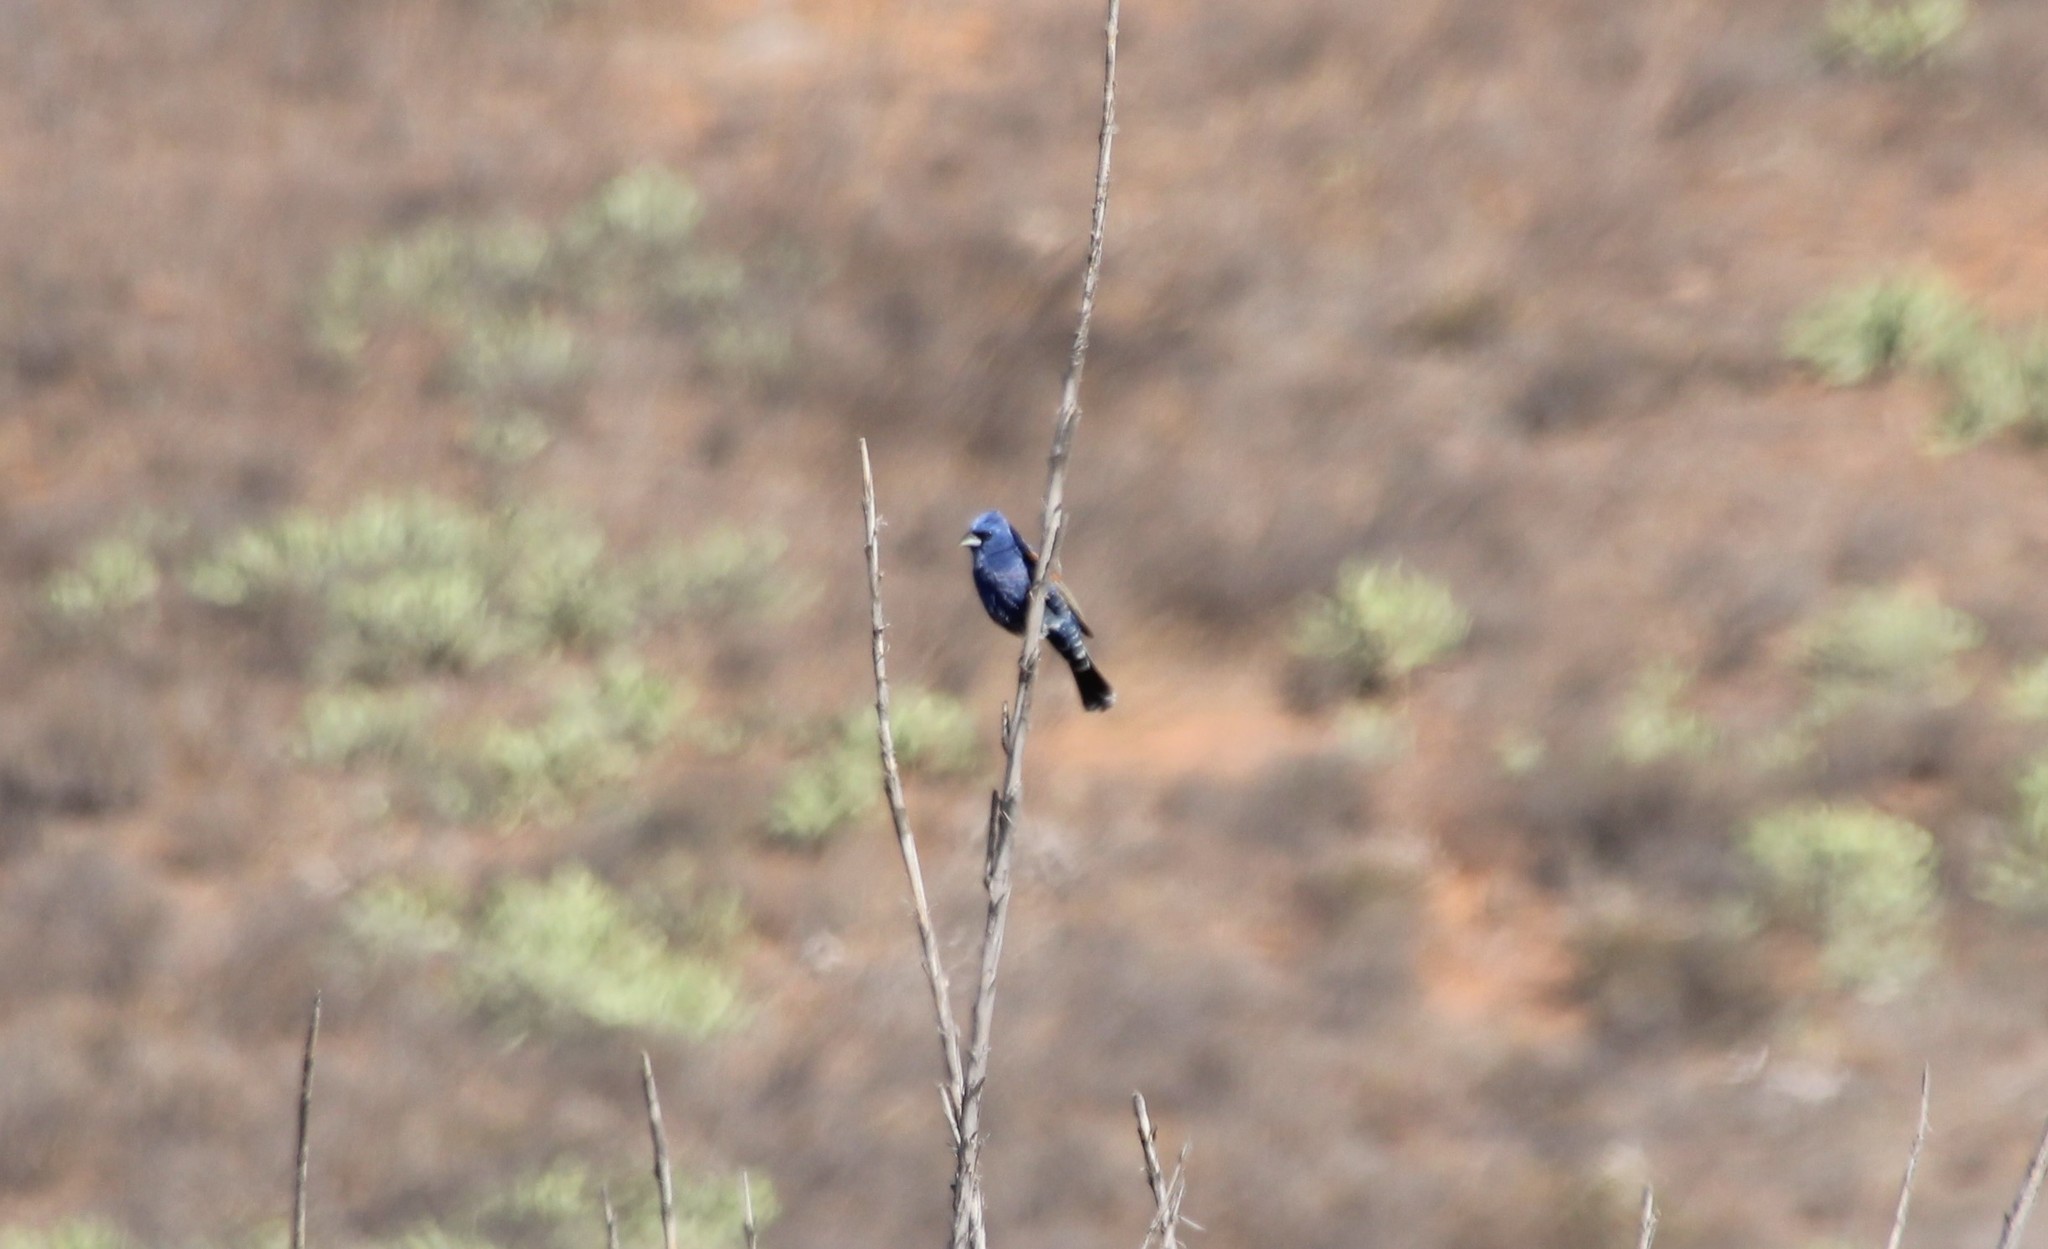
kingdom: Animalia
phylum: Chordata
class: Aves
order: Passeriformes
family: Cardinalidae
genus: Passerina
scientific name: Passerina caerulea
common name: Blue grosbeak
